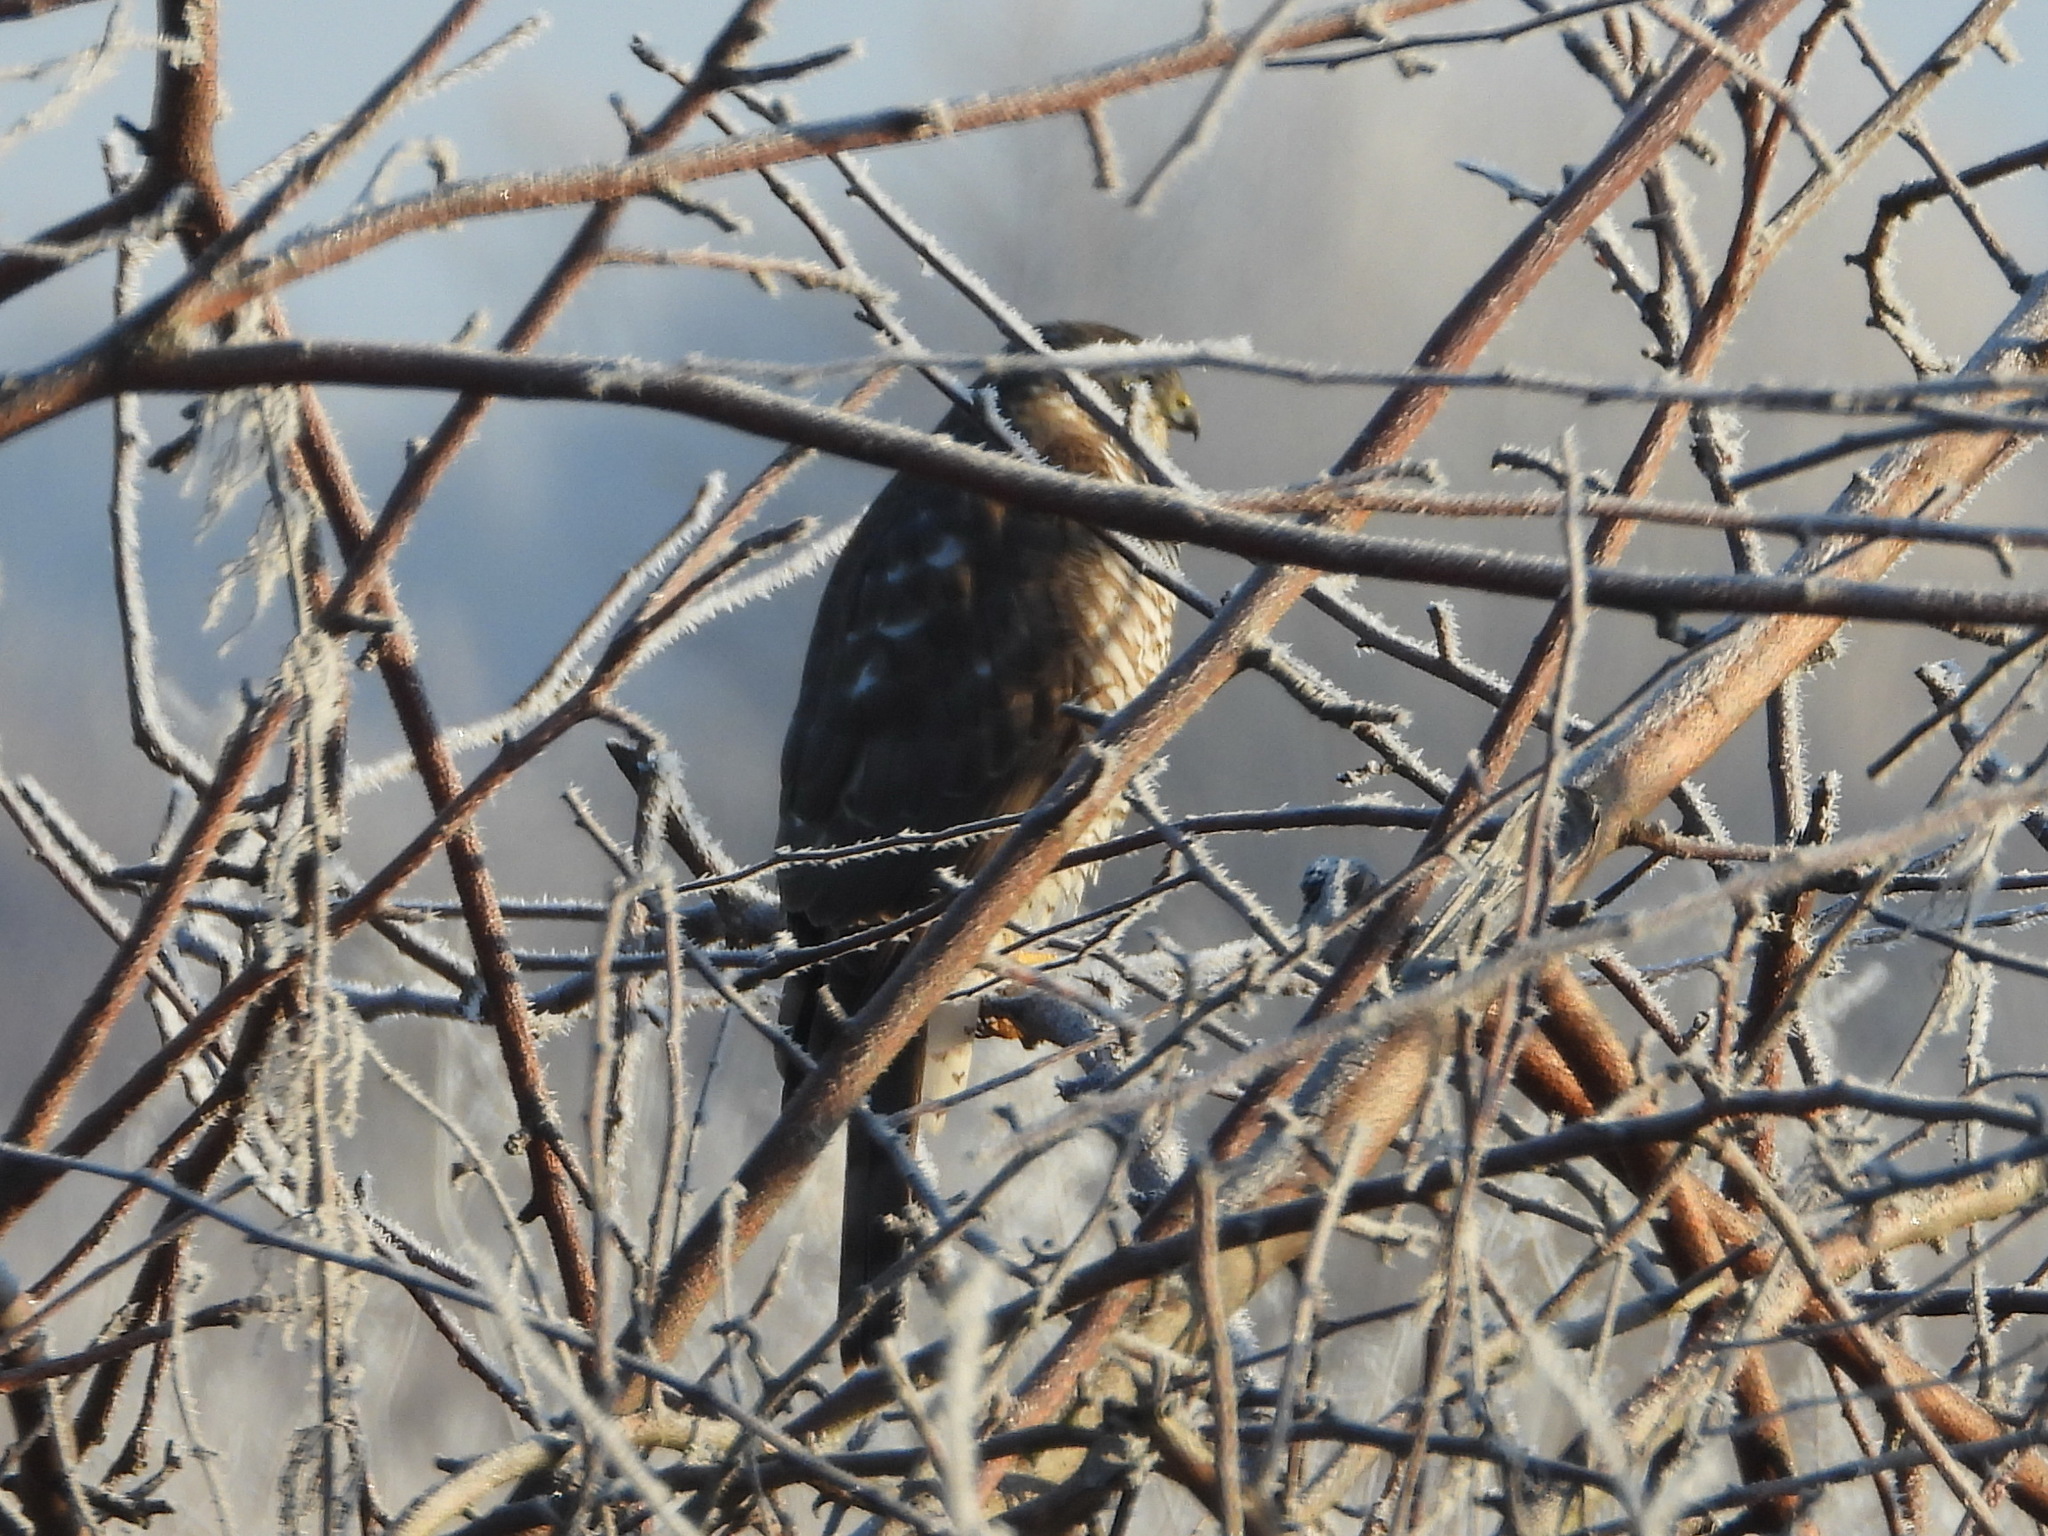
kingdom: Animalia
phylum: Chordata
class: Aves
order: Accipitriformes
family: Accipitridae
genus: Accipiter
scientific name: Accipiter nisus
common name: Eurasian sparrowhawk
